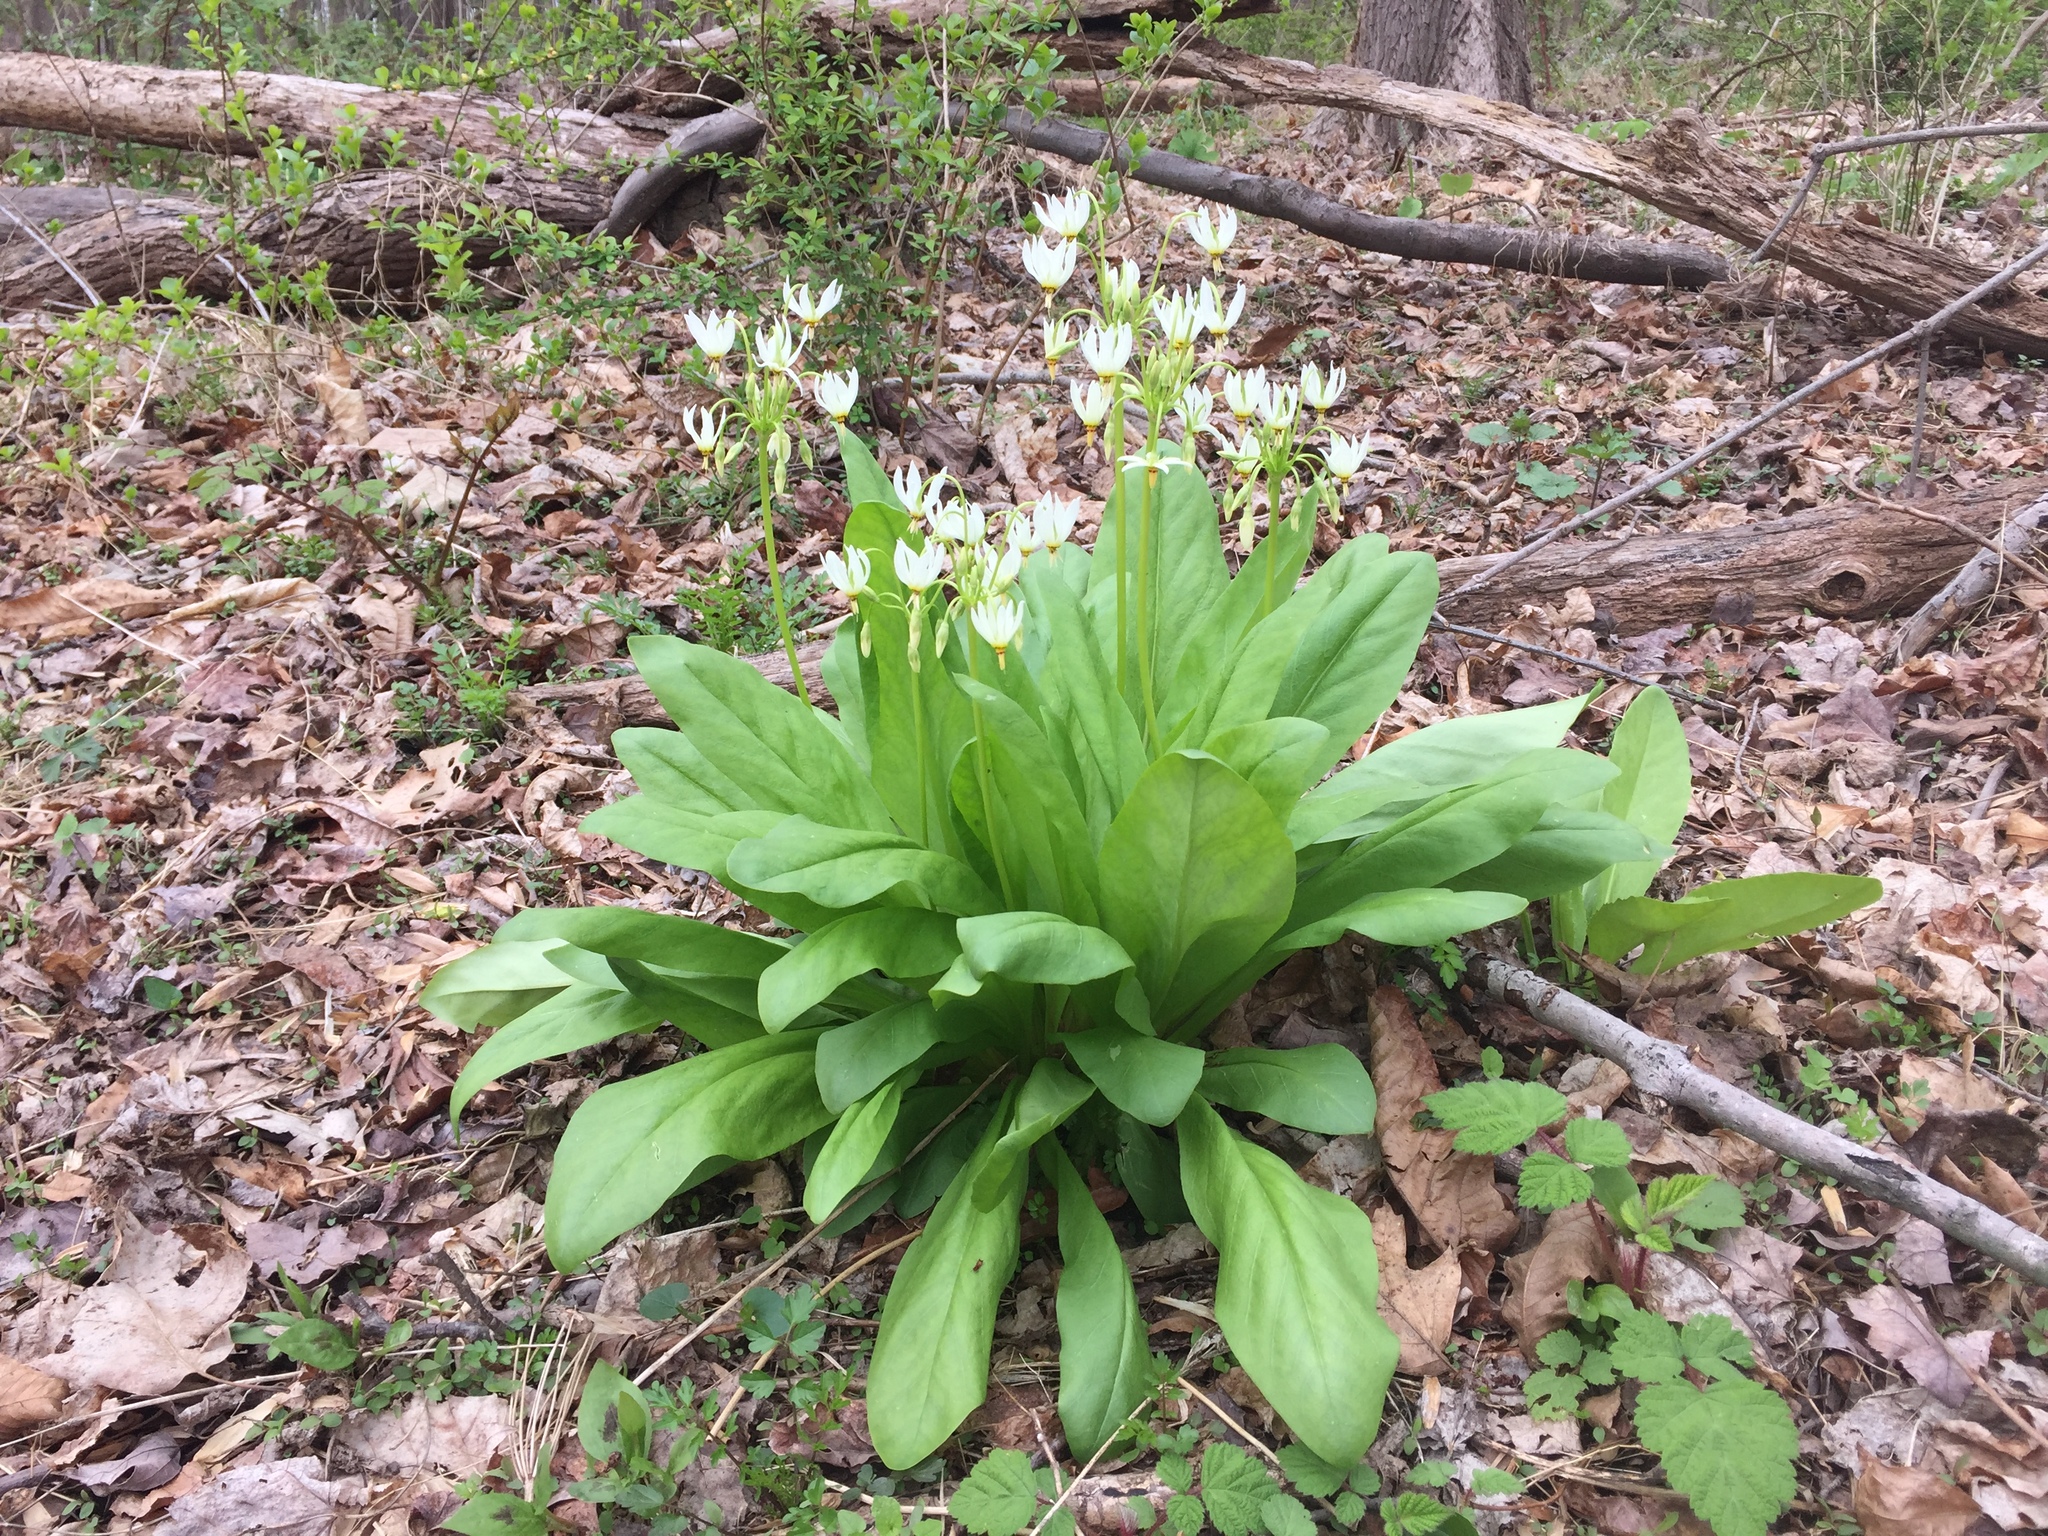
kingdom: Plantae
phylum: Tracheophyta
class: Magnoliopsida
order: Ericales
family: Primulaceae
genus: Dodecatheon
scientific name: Dodecatheon meadia
